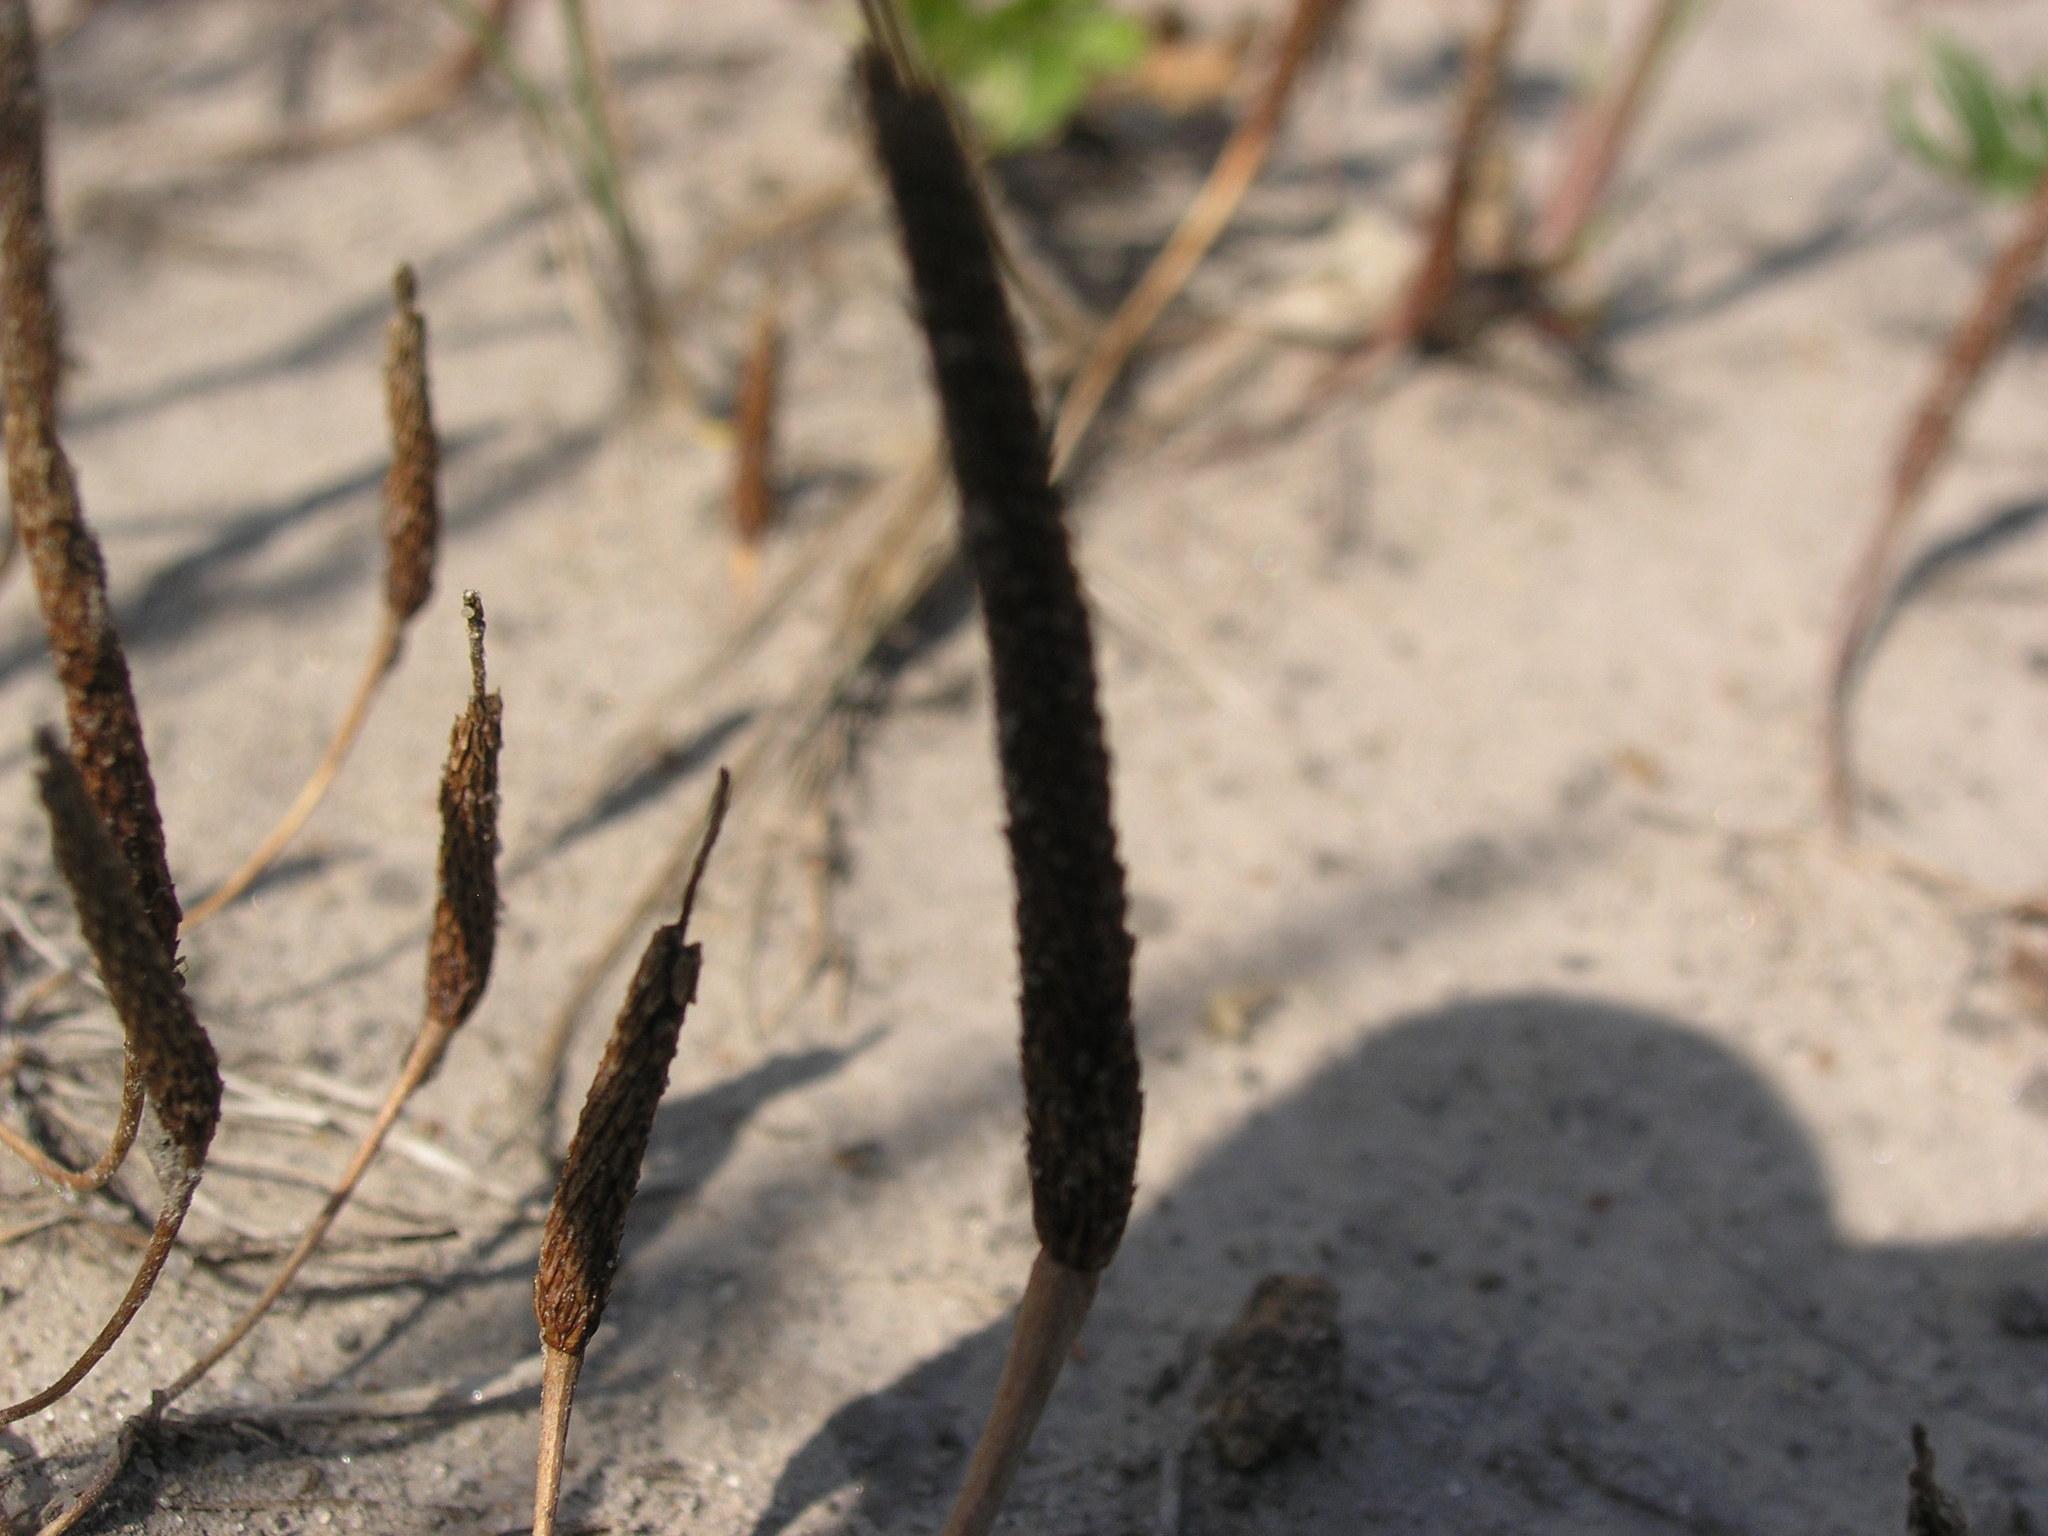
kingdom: Plantae
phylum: Tracheophyta
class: Magnoliopsida
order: Ranunculales
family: Ranunculaceae
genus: Myosurus
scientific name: Myosurus minimus
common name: Mousetail
